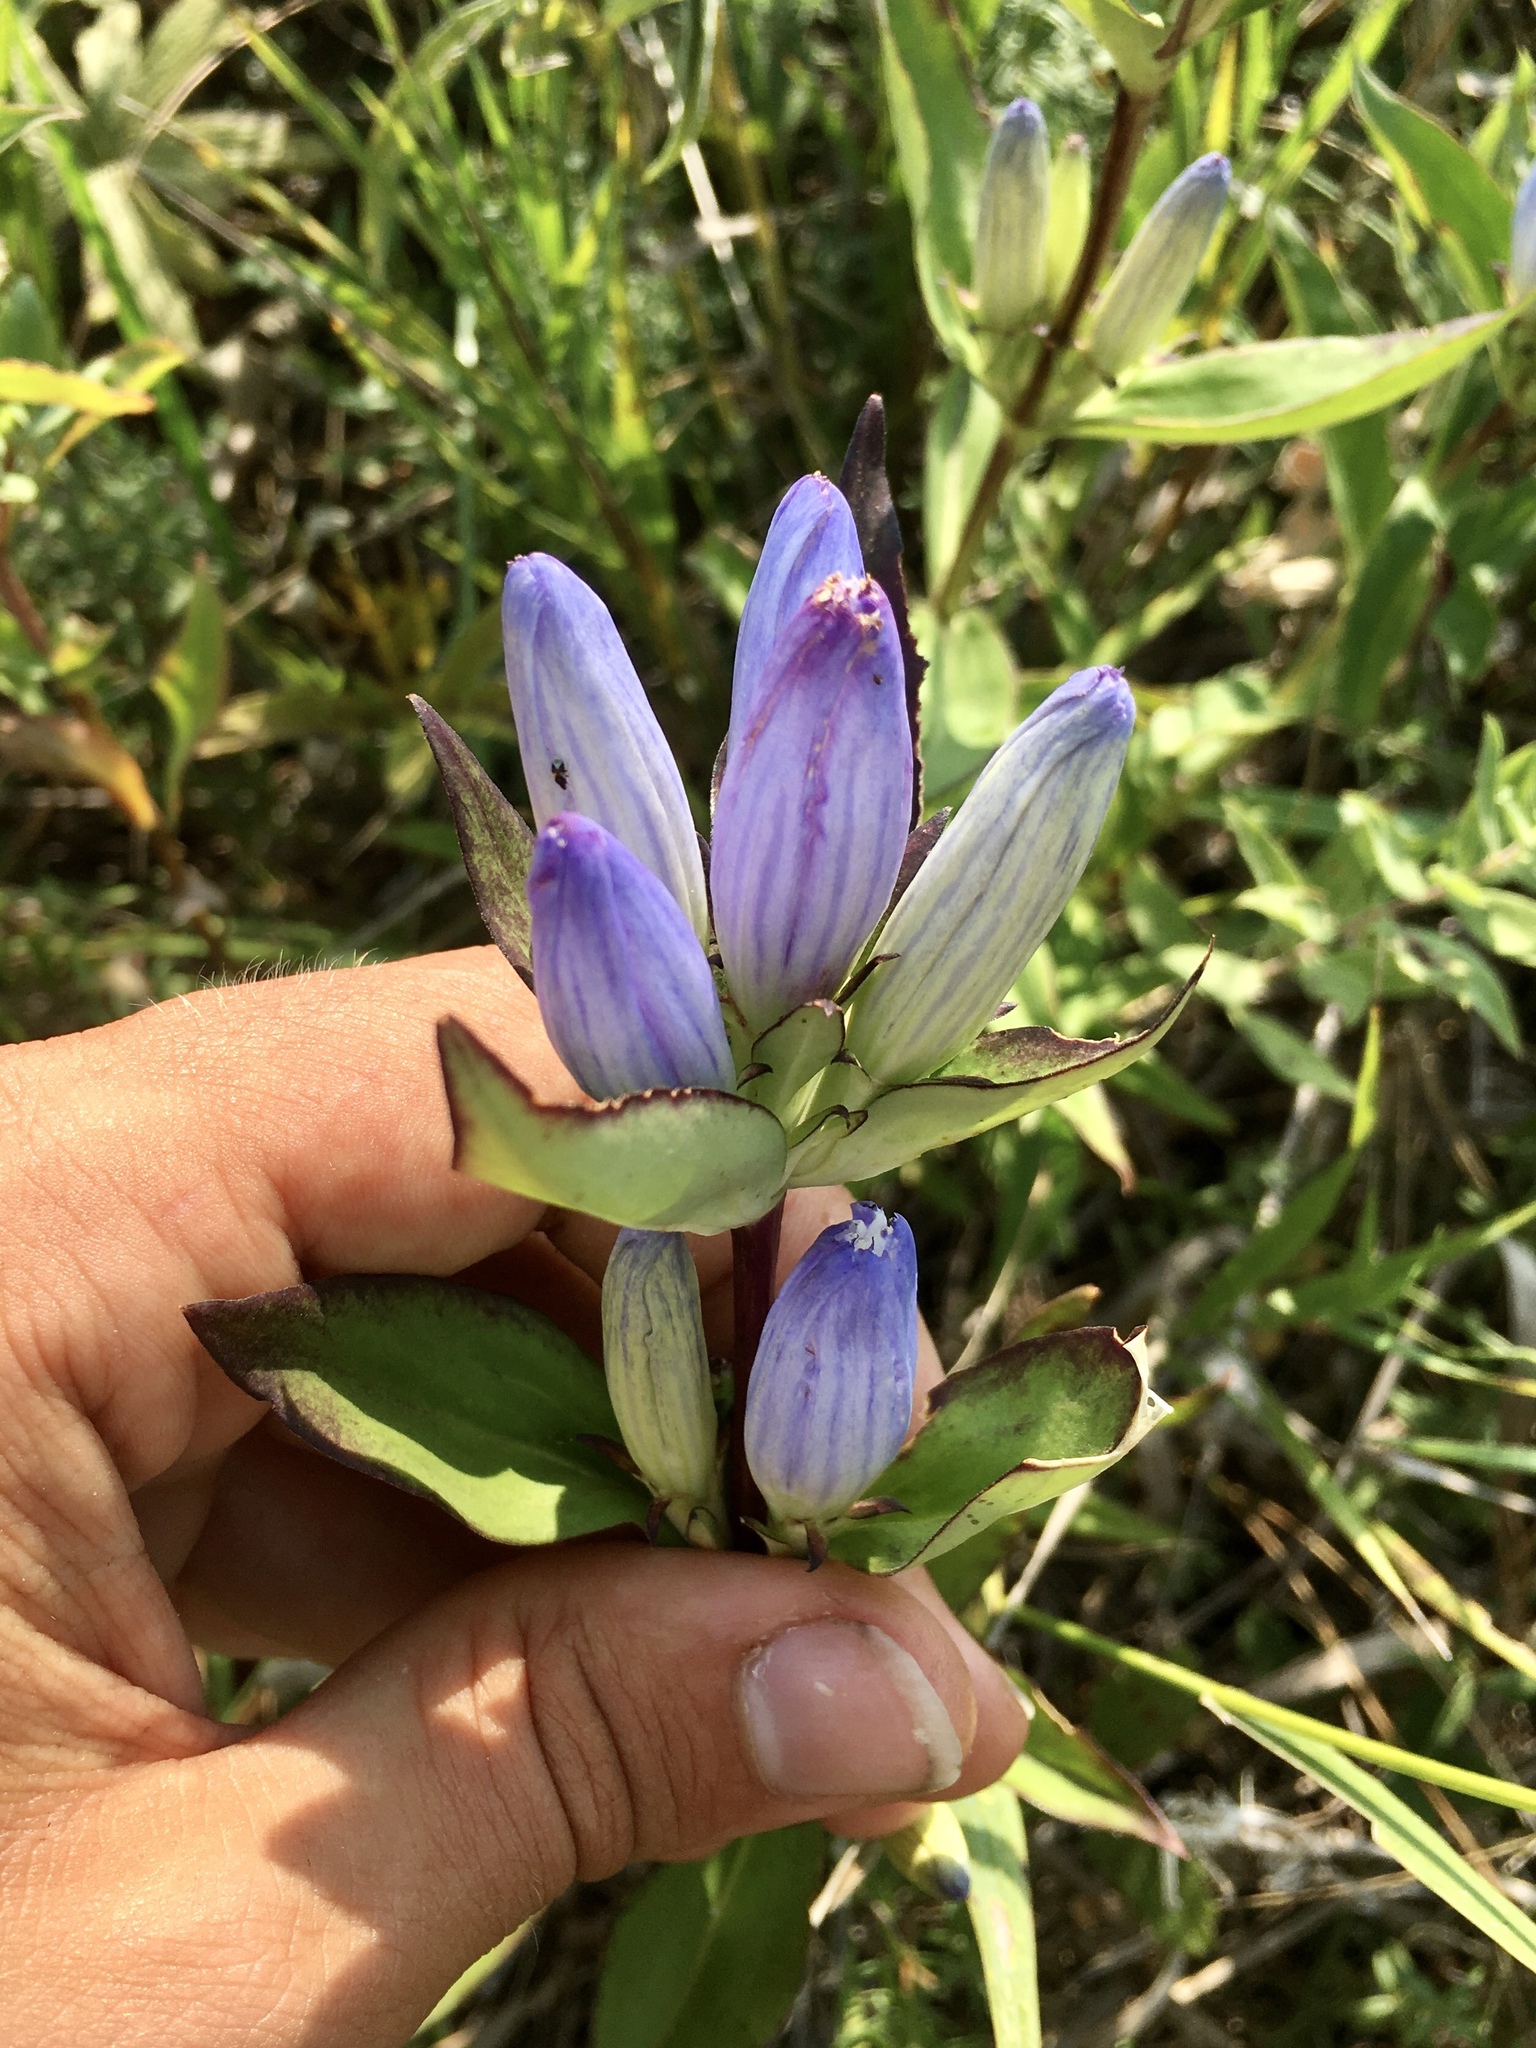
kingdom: Plantae
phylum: Tracheophyta
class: Magnoliopsida
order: Gentianales
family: Gentianaceae
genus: Gentiana
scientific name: Gentiana andrewsii
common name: Bottle gentian
